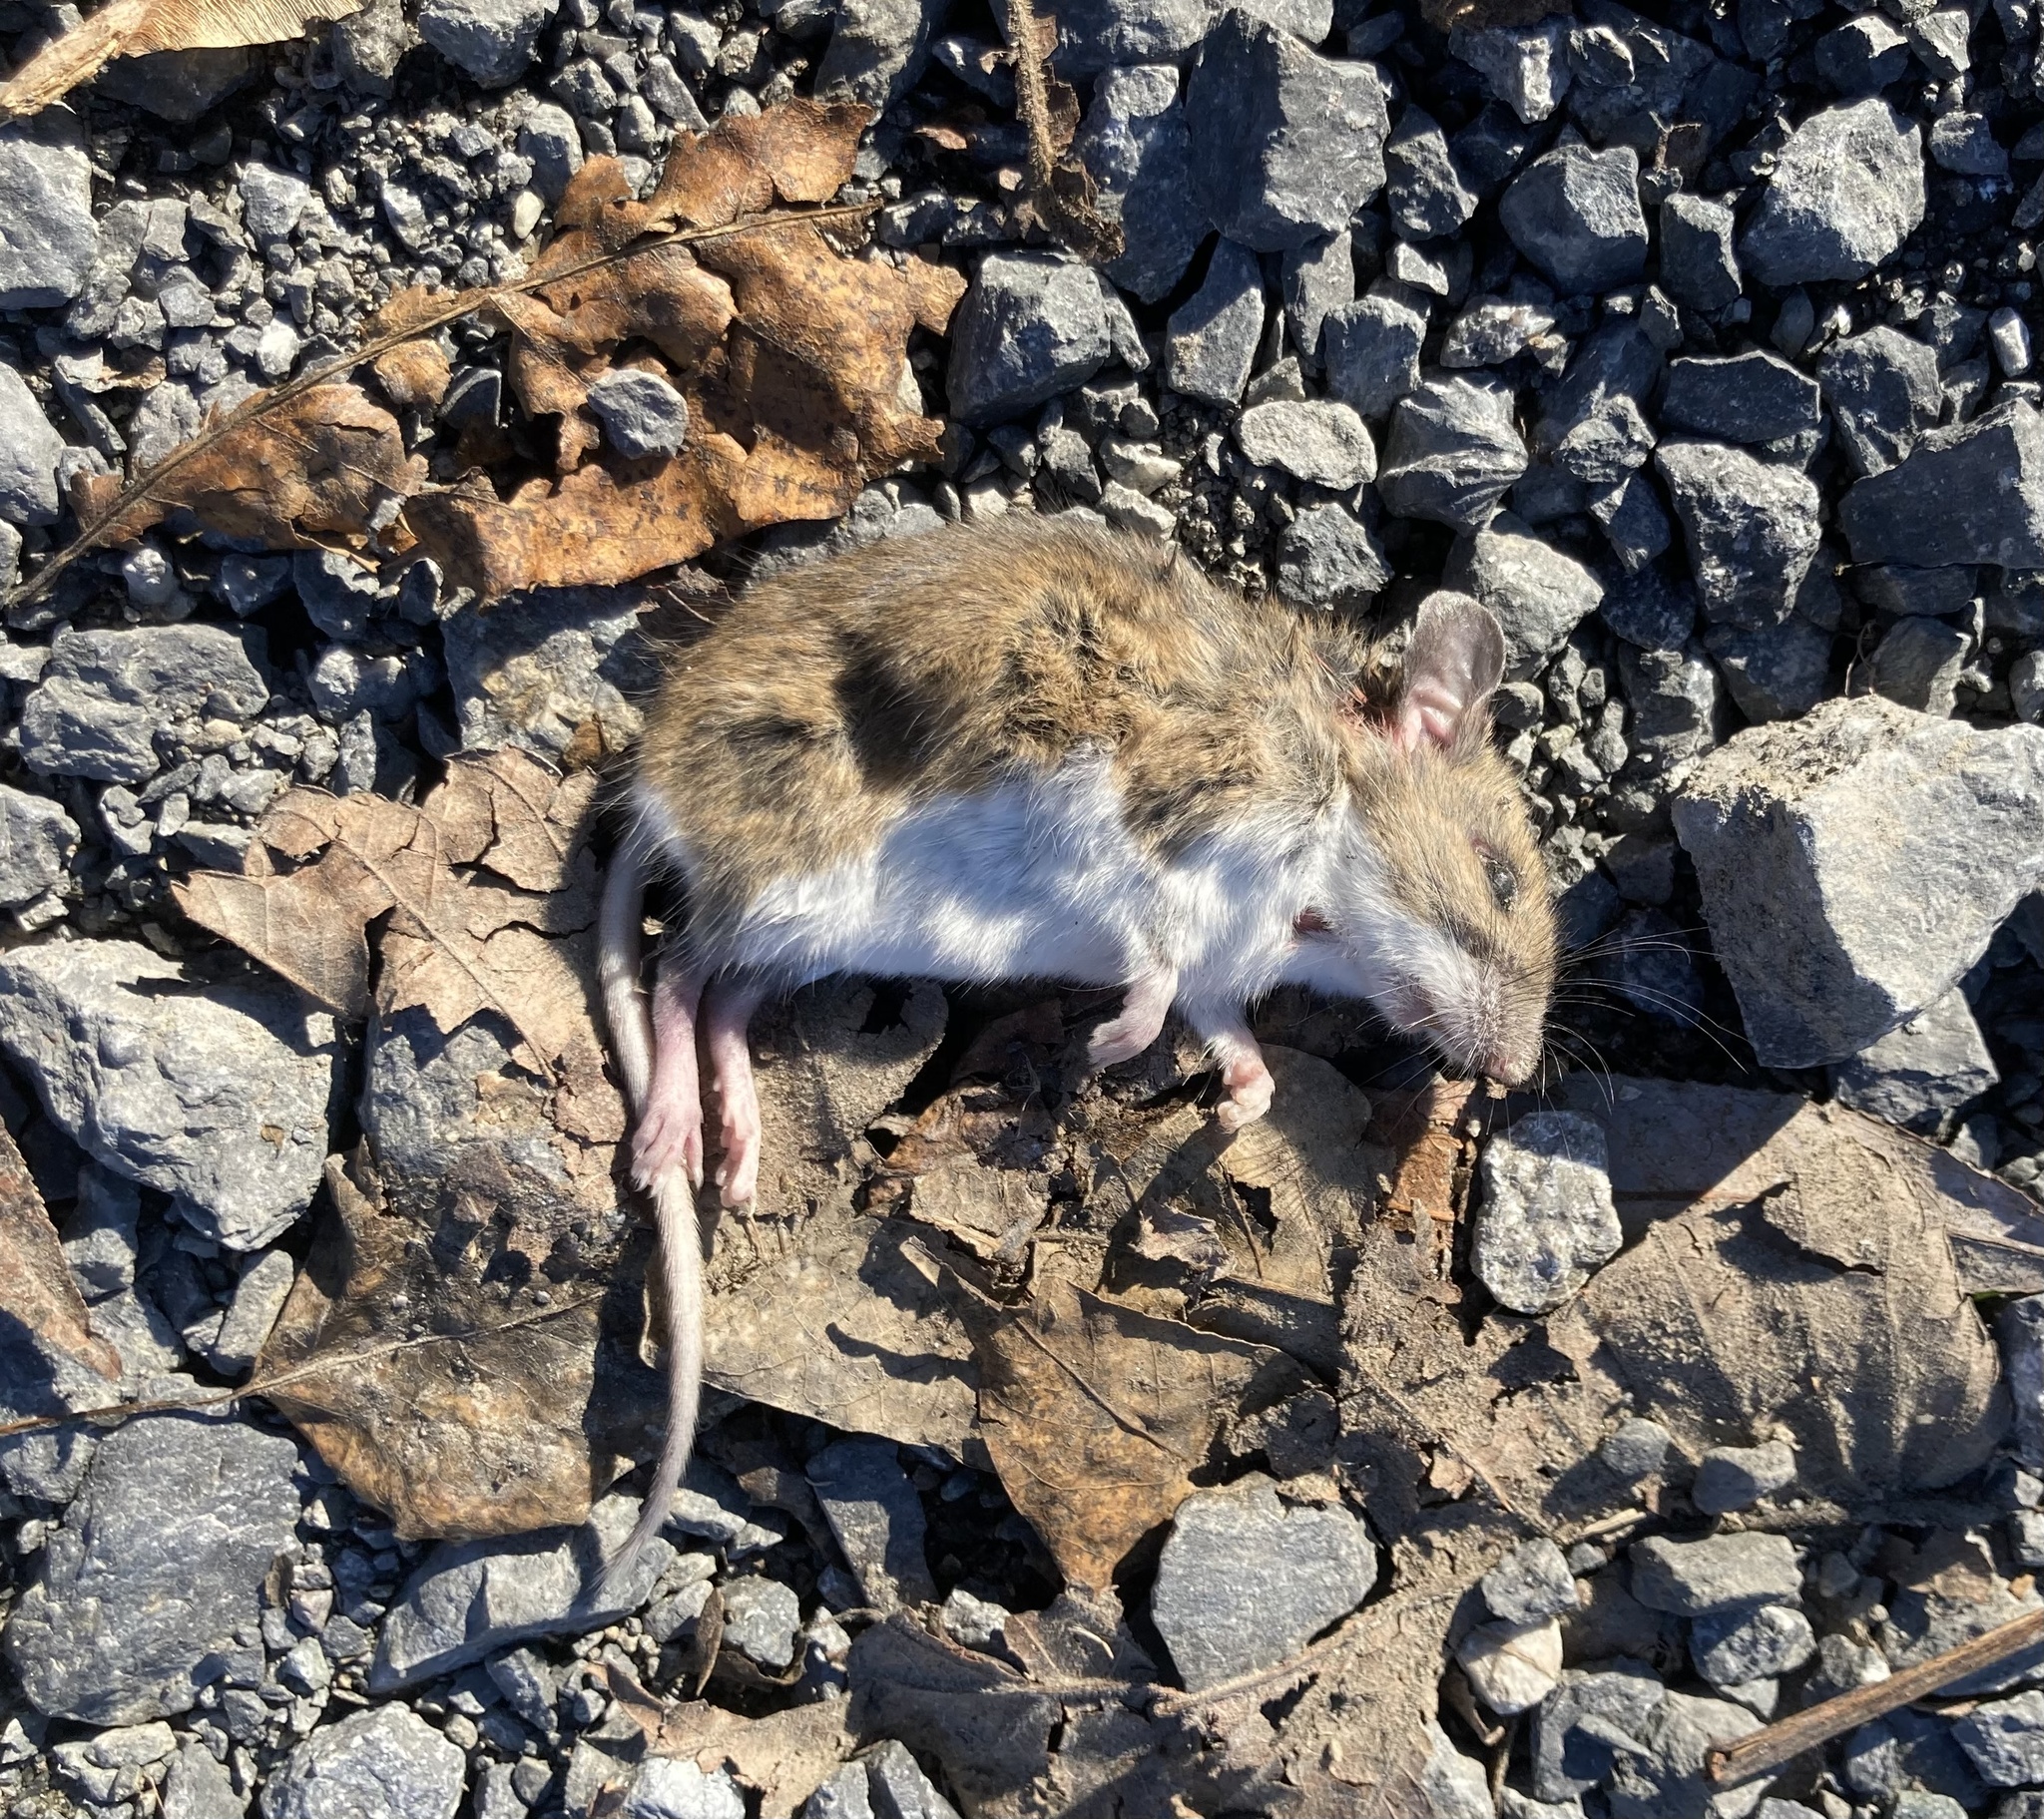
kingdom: Animalia
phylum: Chordata
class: Mammalia
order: Rodentia
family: Cricetidae
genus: Peromyscus
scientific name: Peromyscus leucopus
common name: White-footed deermouse
